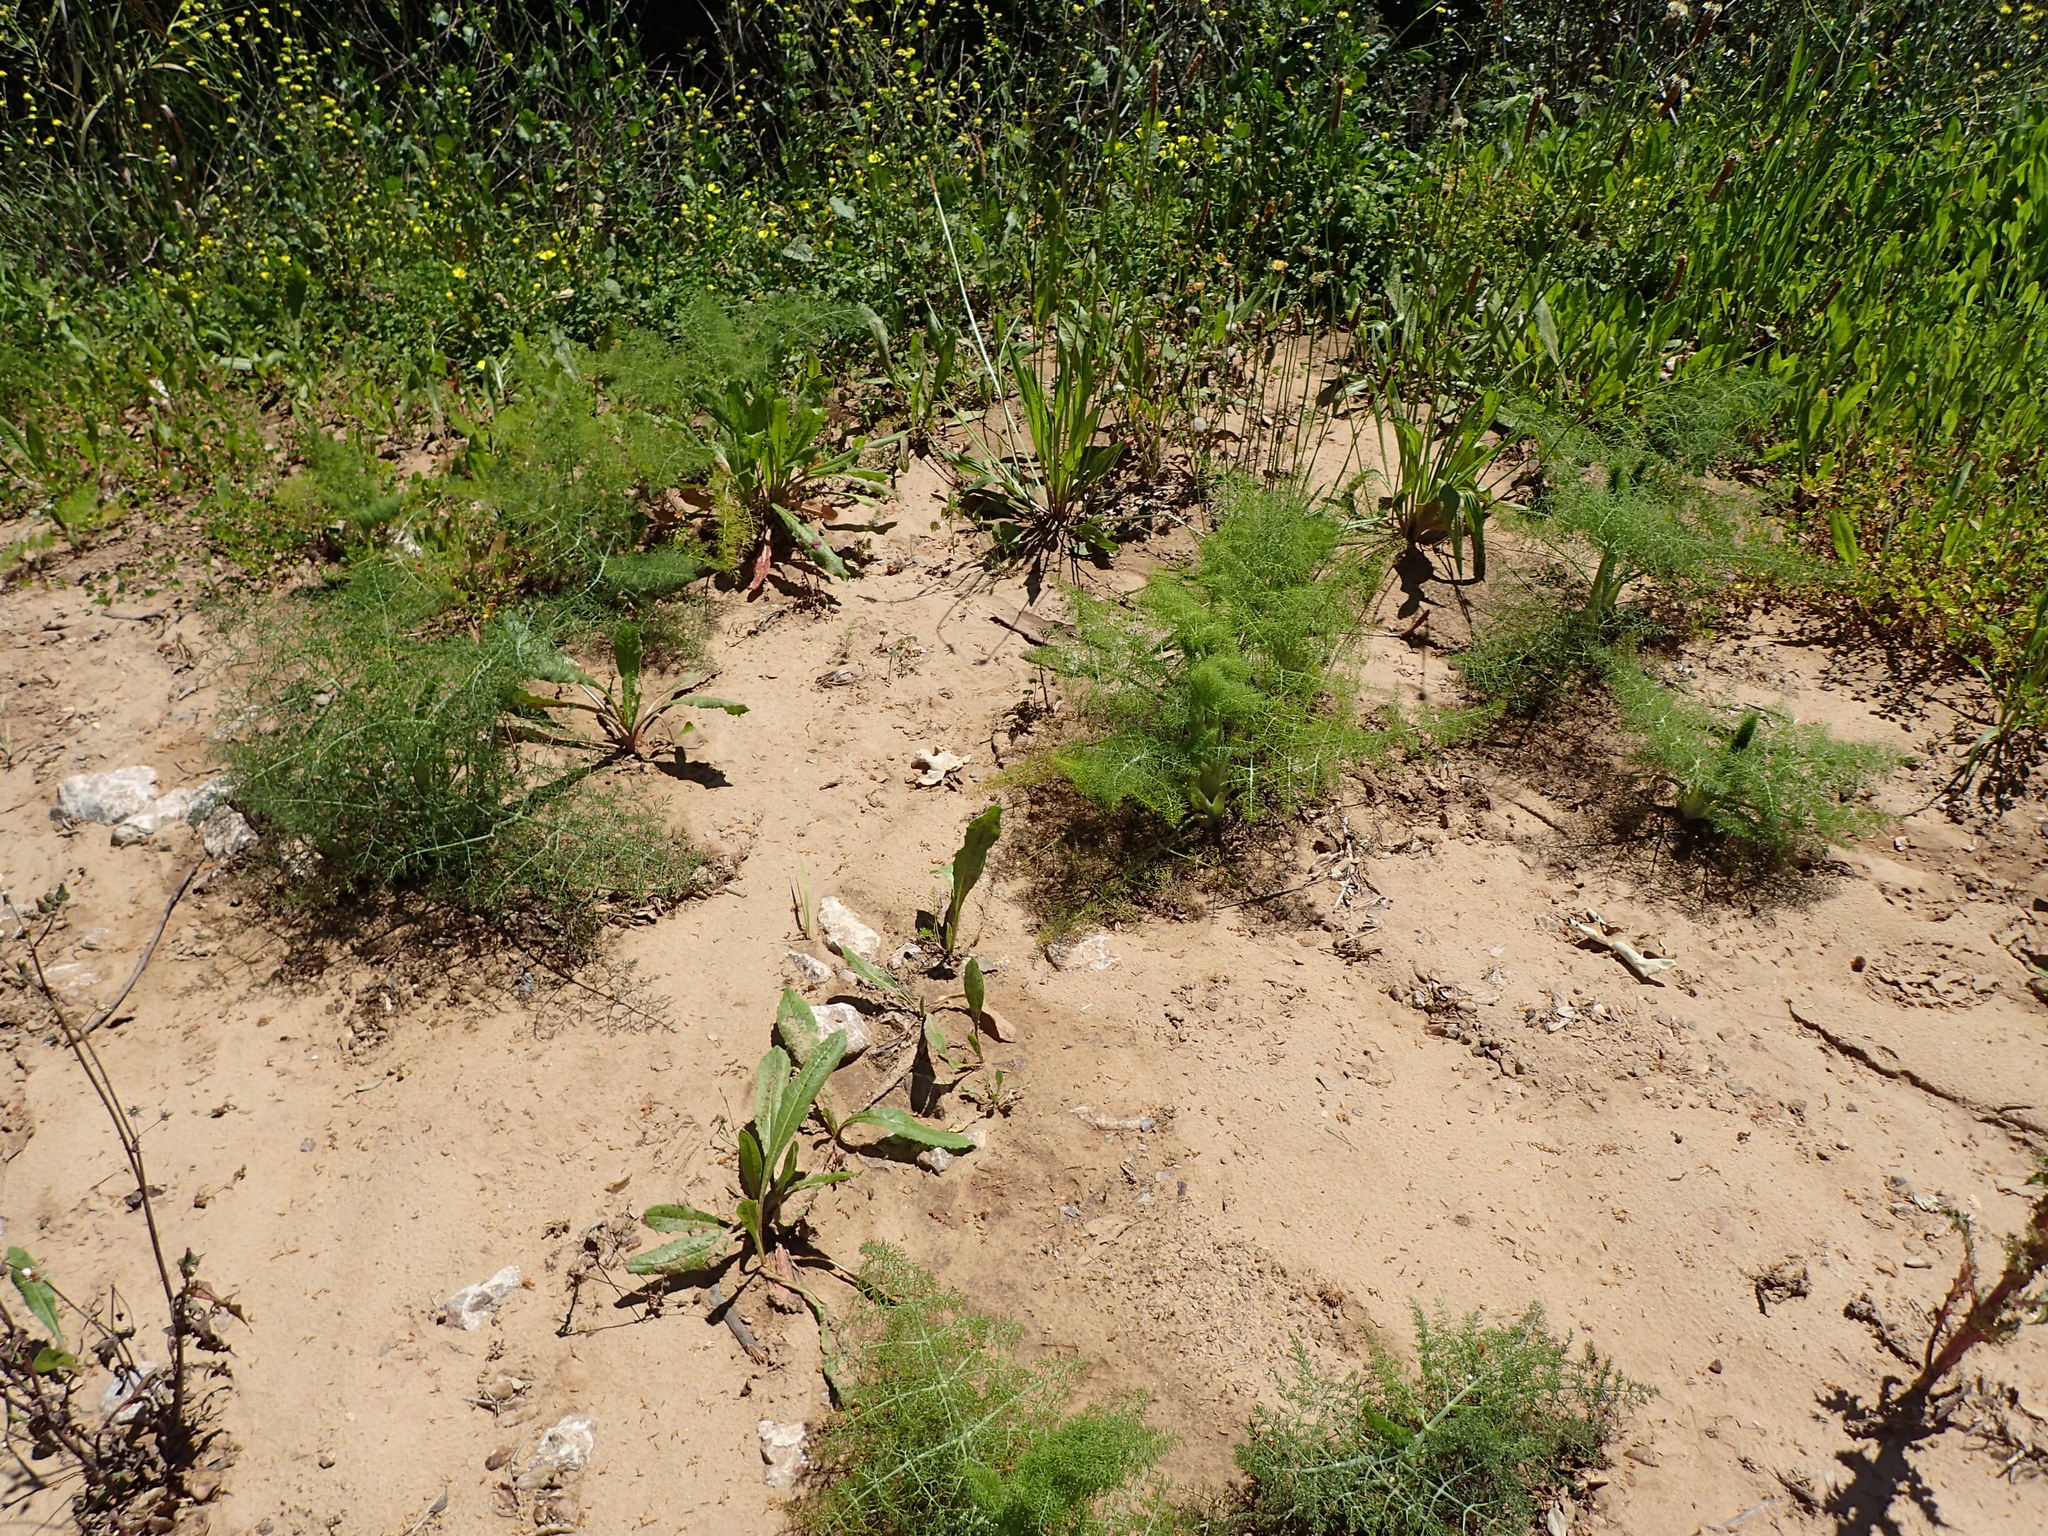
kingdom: Plantae
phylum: Tracheophyta
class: Magnoliopsida
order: Apiales
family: Apiaceae
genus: Foeniculum
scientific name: Foeniculum vulgare
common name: Fennel
